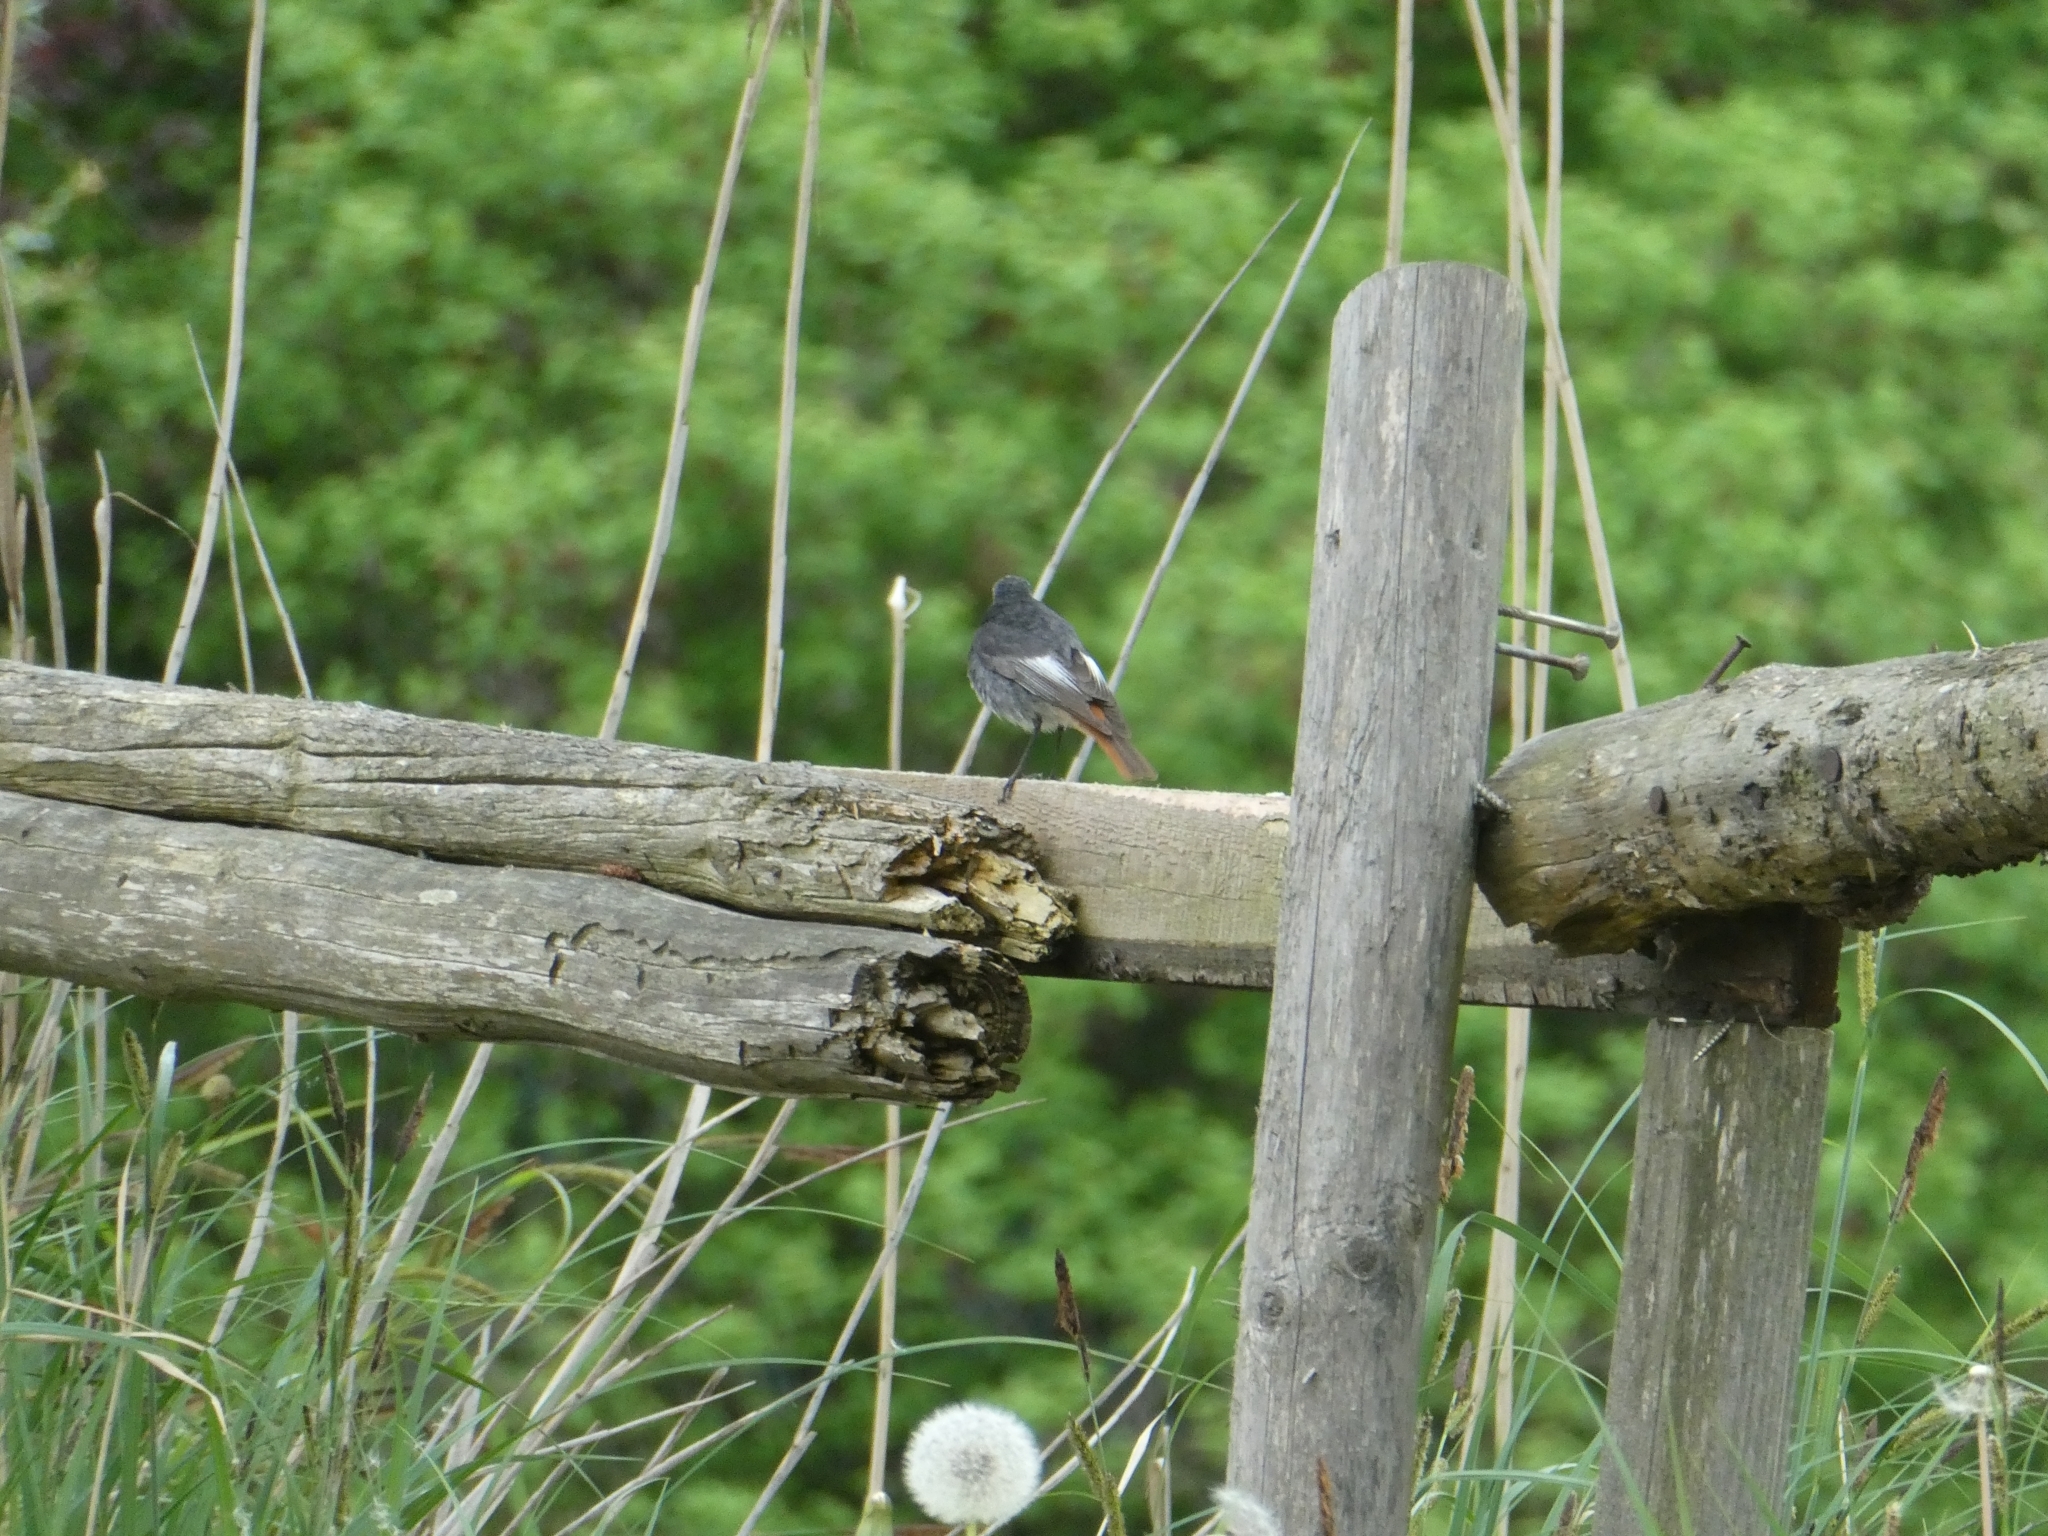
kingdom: Animalia
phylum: Chordata
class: Aves
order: Passeriformes
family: Muscicapidae
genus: Phoenicurus
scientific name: Phoenicurus ochruros
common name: Black redstart
